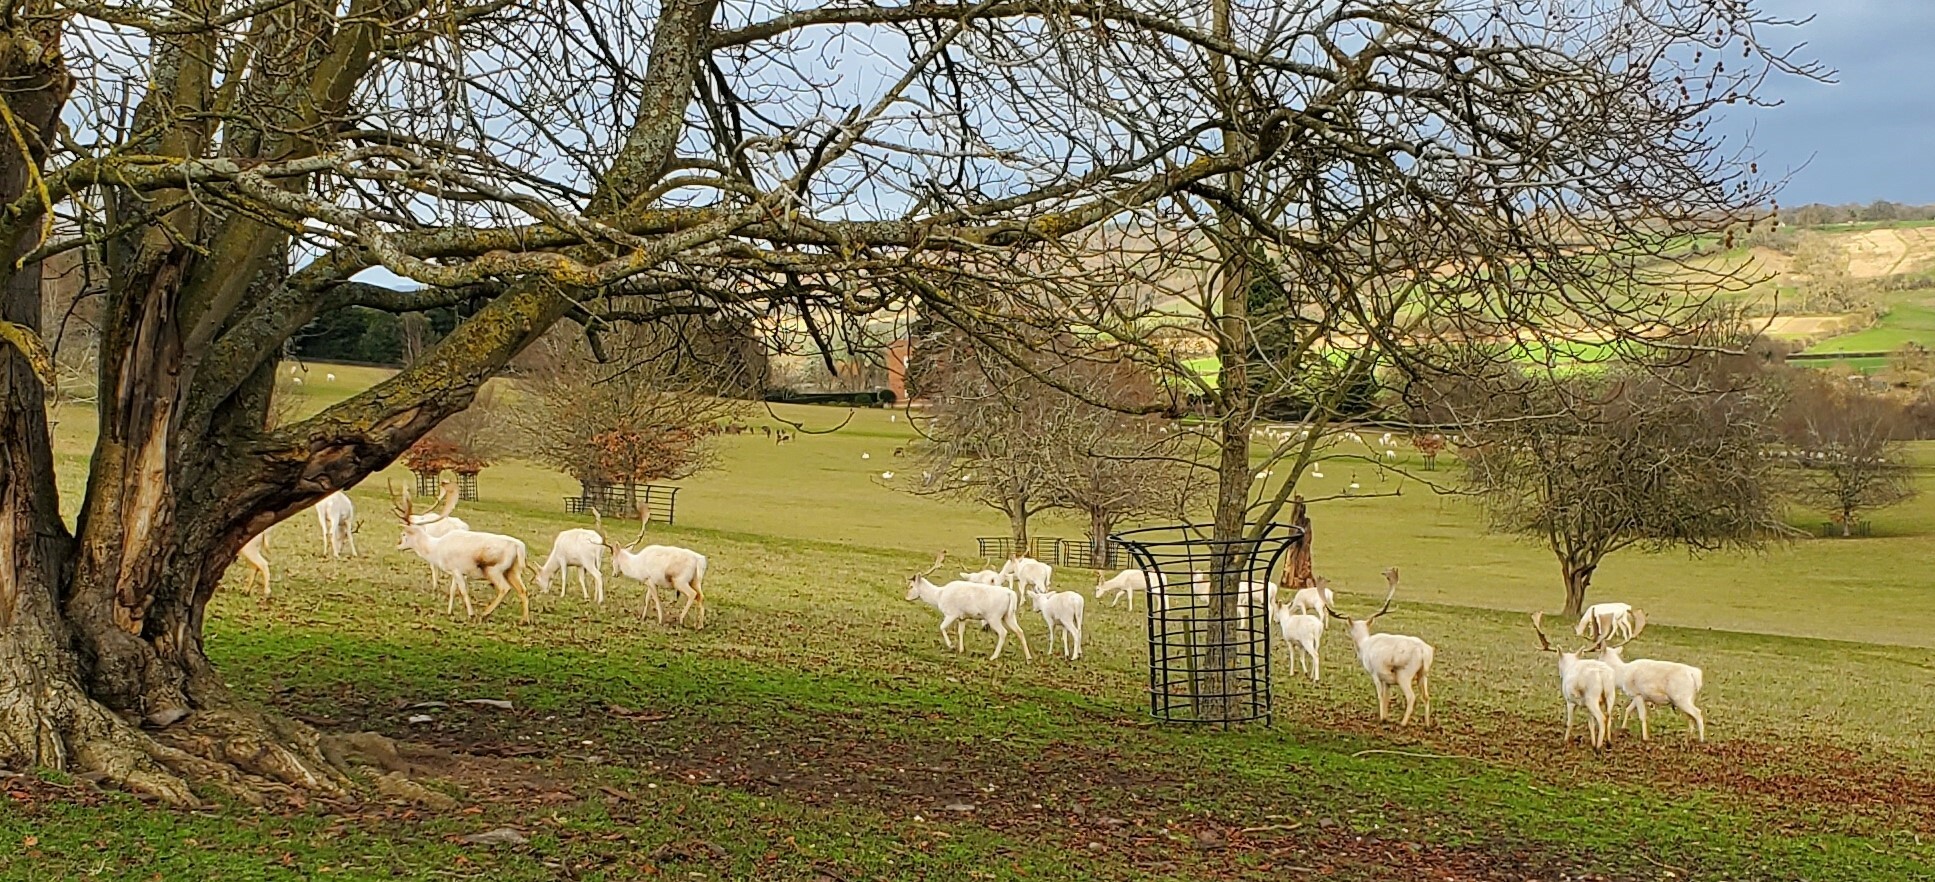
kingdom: Animalia
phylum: Chordata
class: Mammalia
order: Artiodactyla
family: Cervidae
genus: Dama
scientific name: Dama dama
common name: Fallow deer
